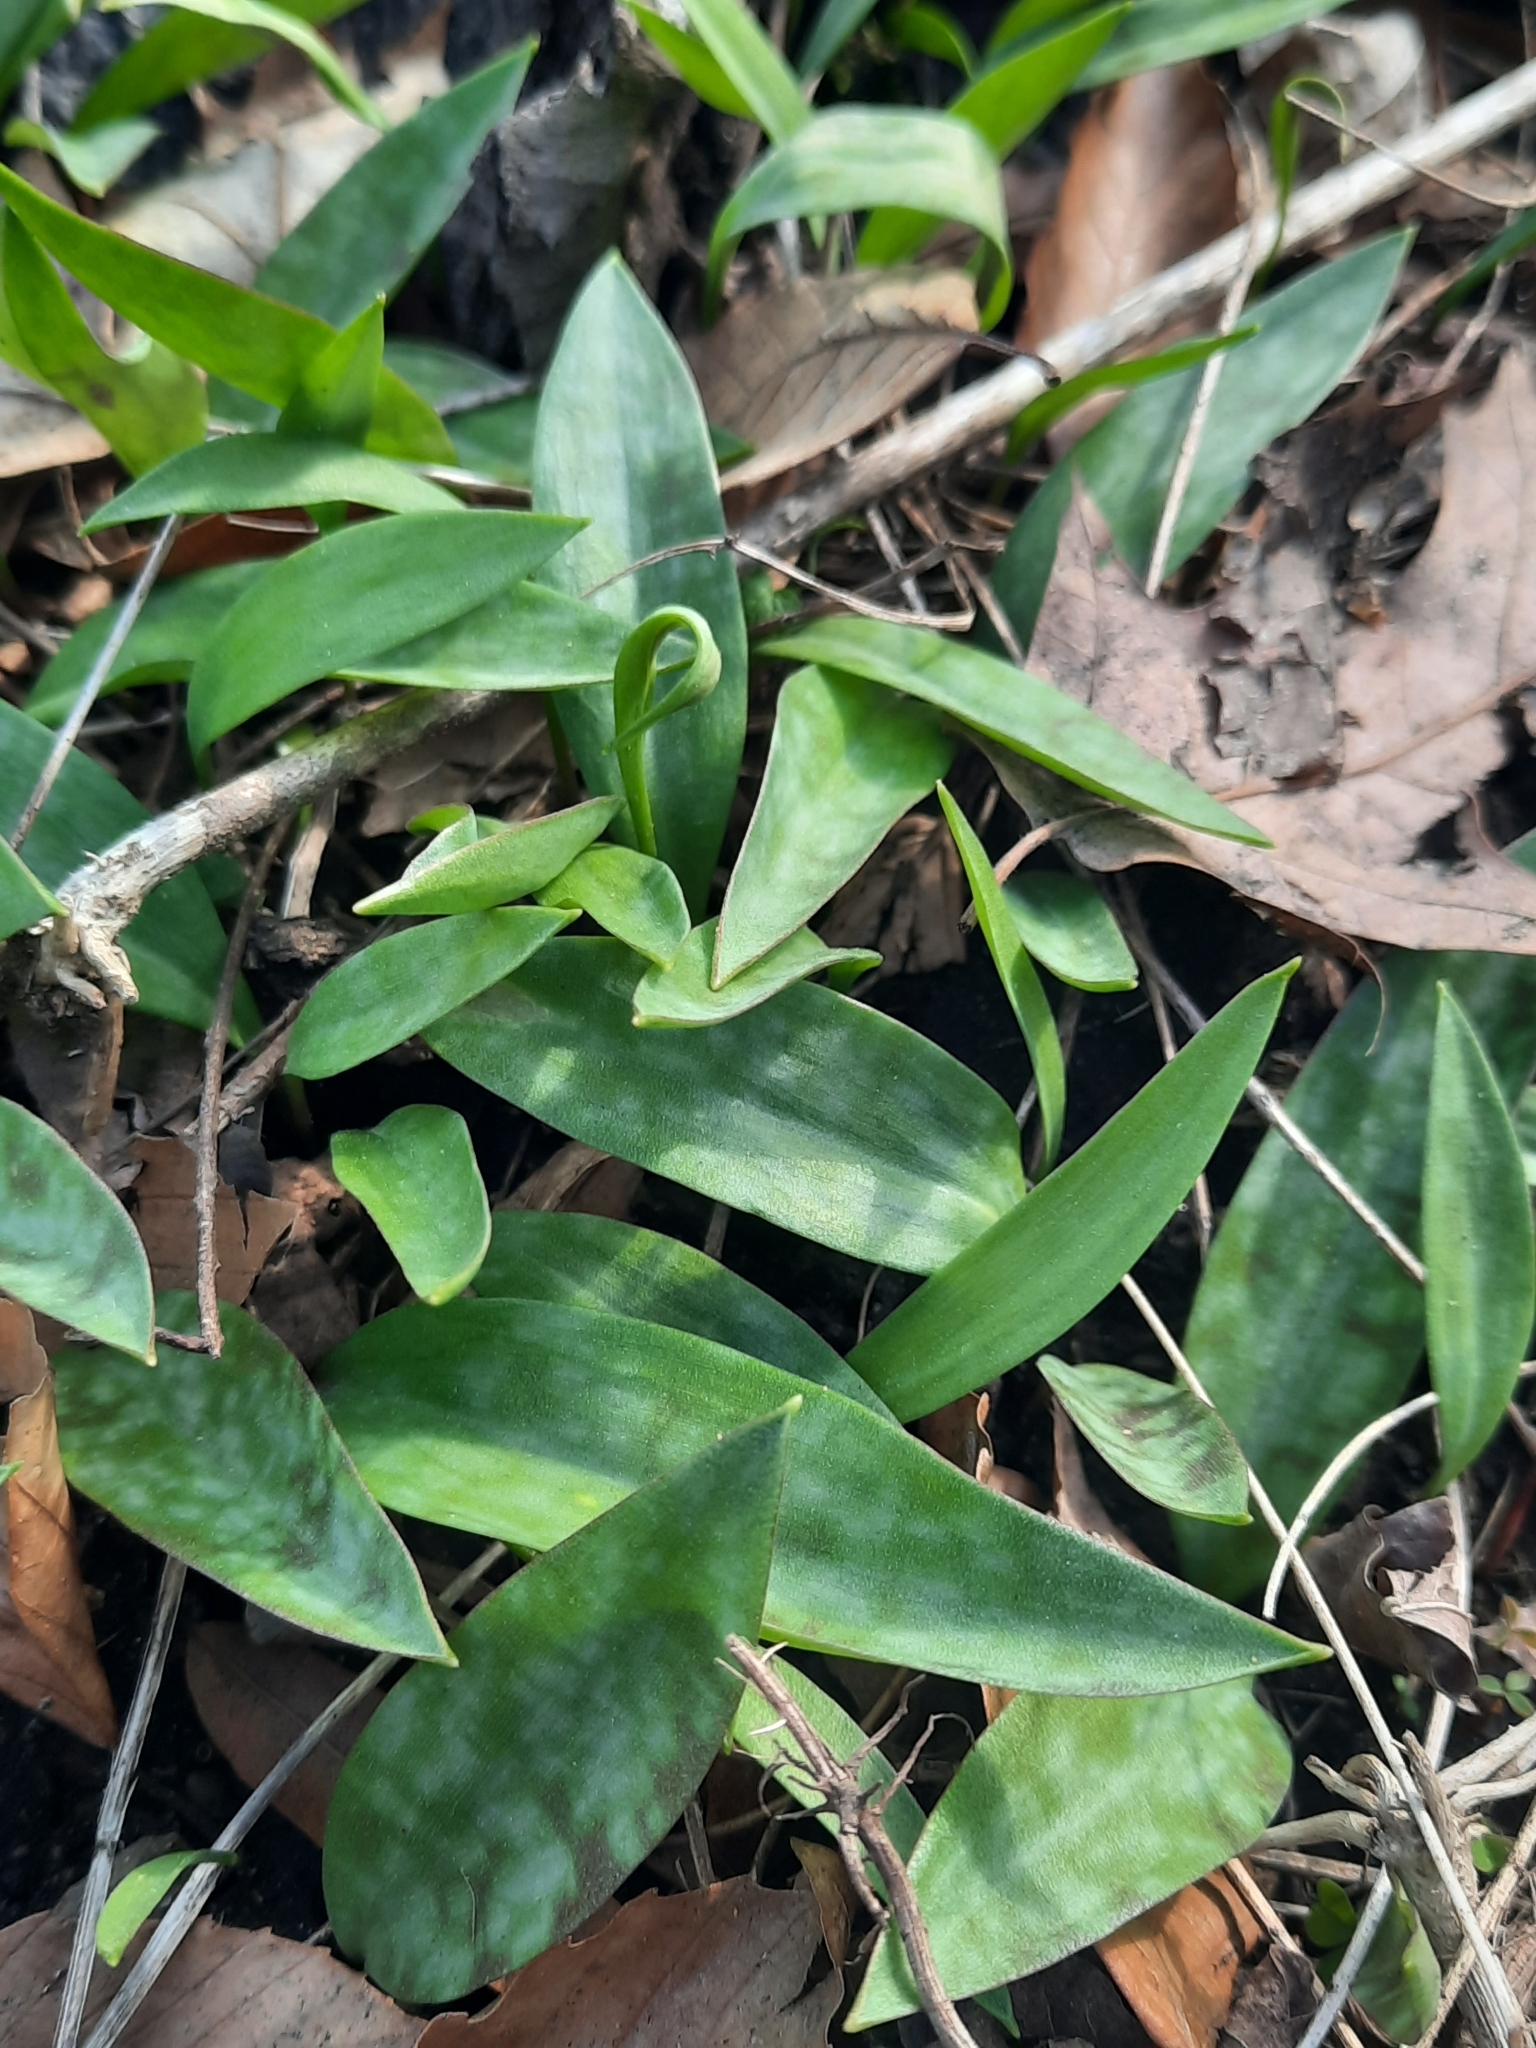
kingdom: Plantae
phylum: Tracheophyta
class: Liliopsida
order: Liliales
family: Liliaceae
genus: Erythronium
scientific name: Erythronium americanum
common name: Yellow adder's-tongue
